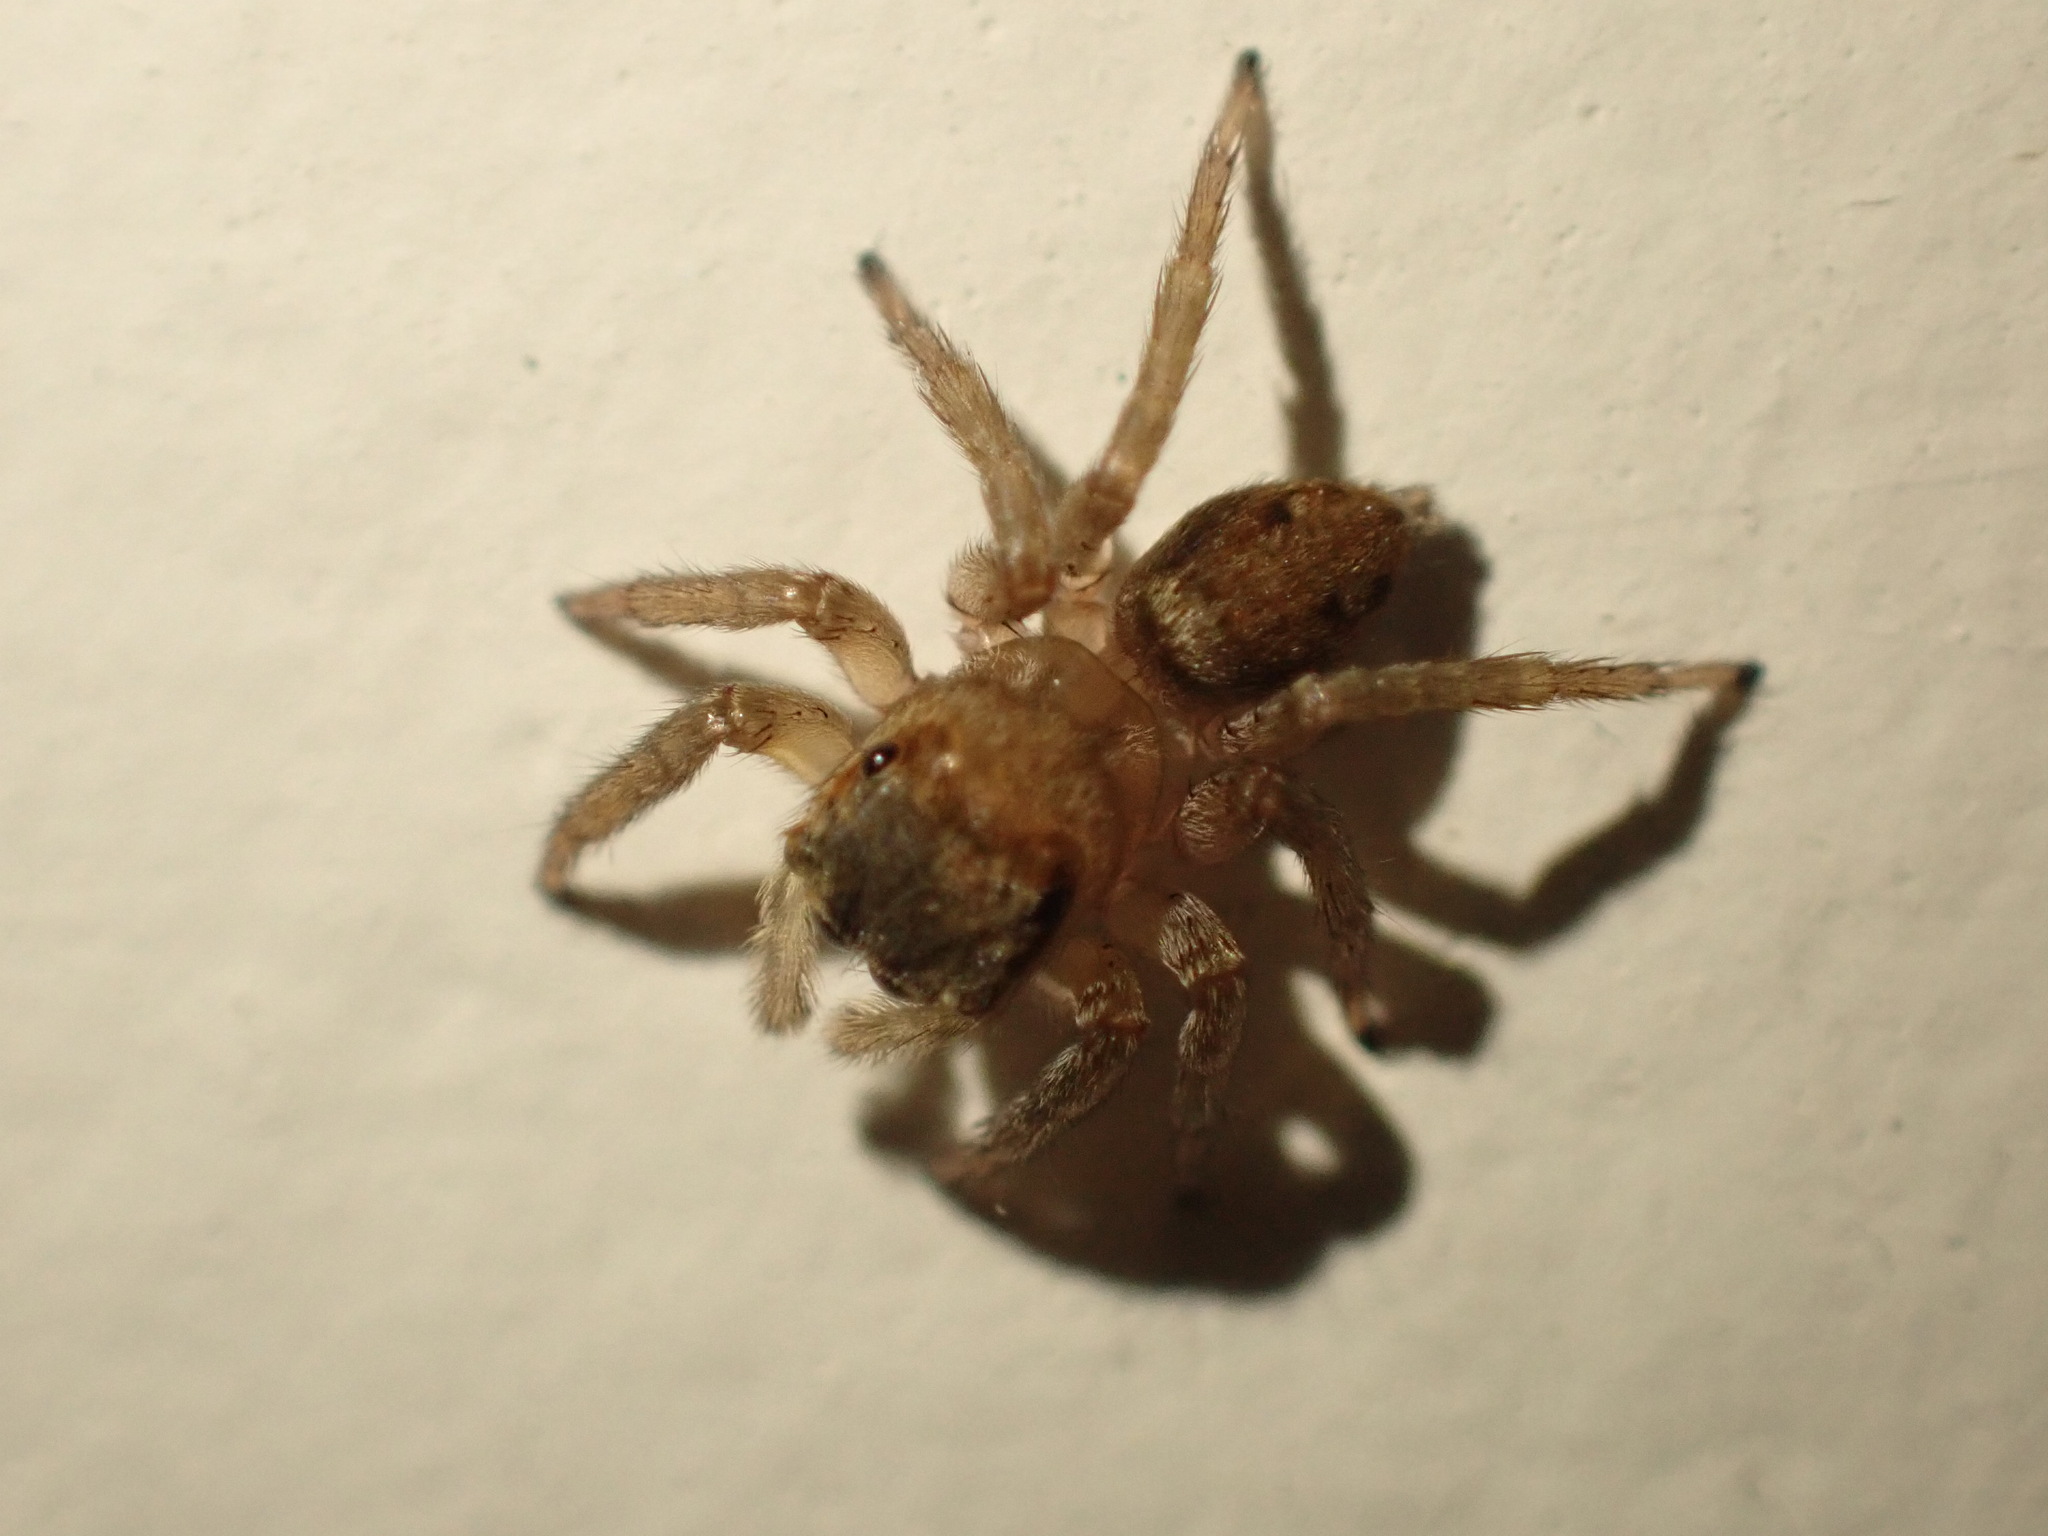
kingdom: Animalia
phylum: Arthropoda
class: Arachnida
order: Araneae
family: Salticidae
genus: Hasarius
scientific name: Hasarius adansoni
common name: Jumping spider
